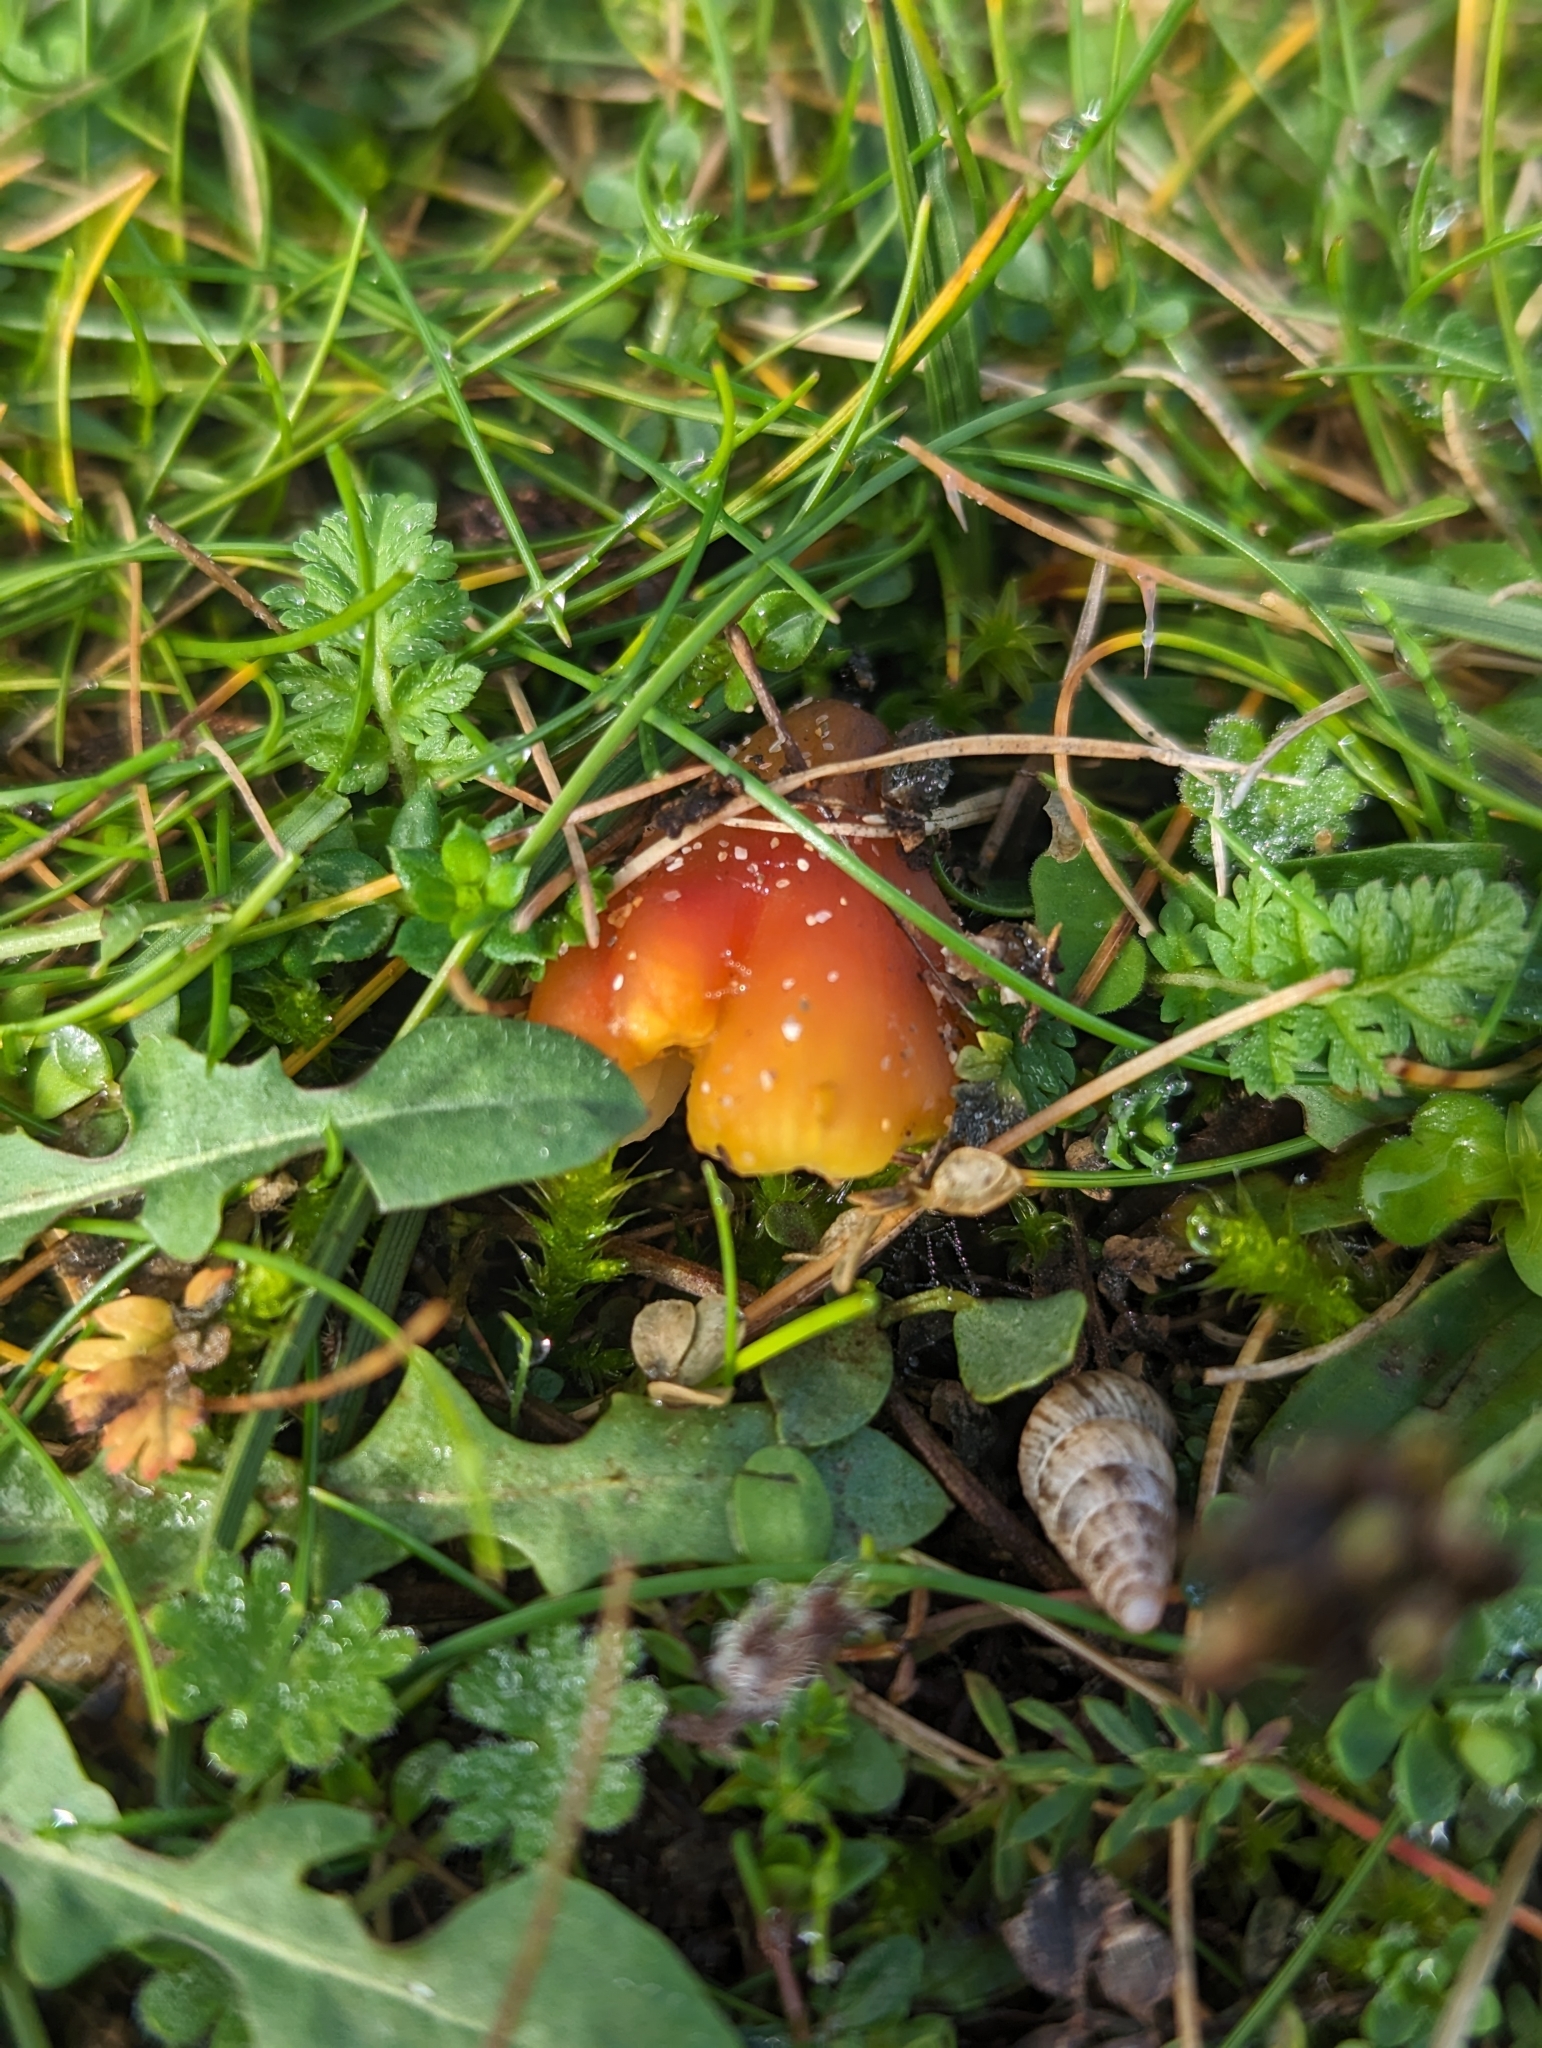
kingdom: Fungi
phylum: Basidiomycota
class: Agaricomycetes
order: Agaricales
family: Hygrophoraceae
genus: Hygrocybe
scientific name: Hygrocybe conica
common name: Blackening wax-cap
